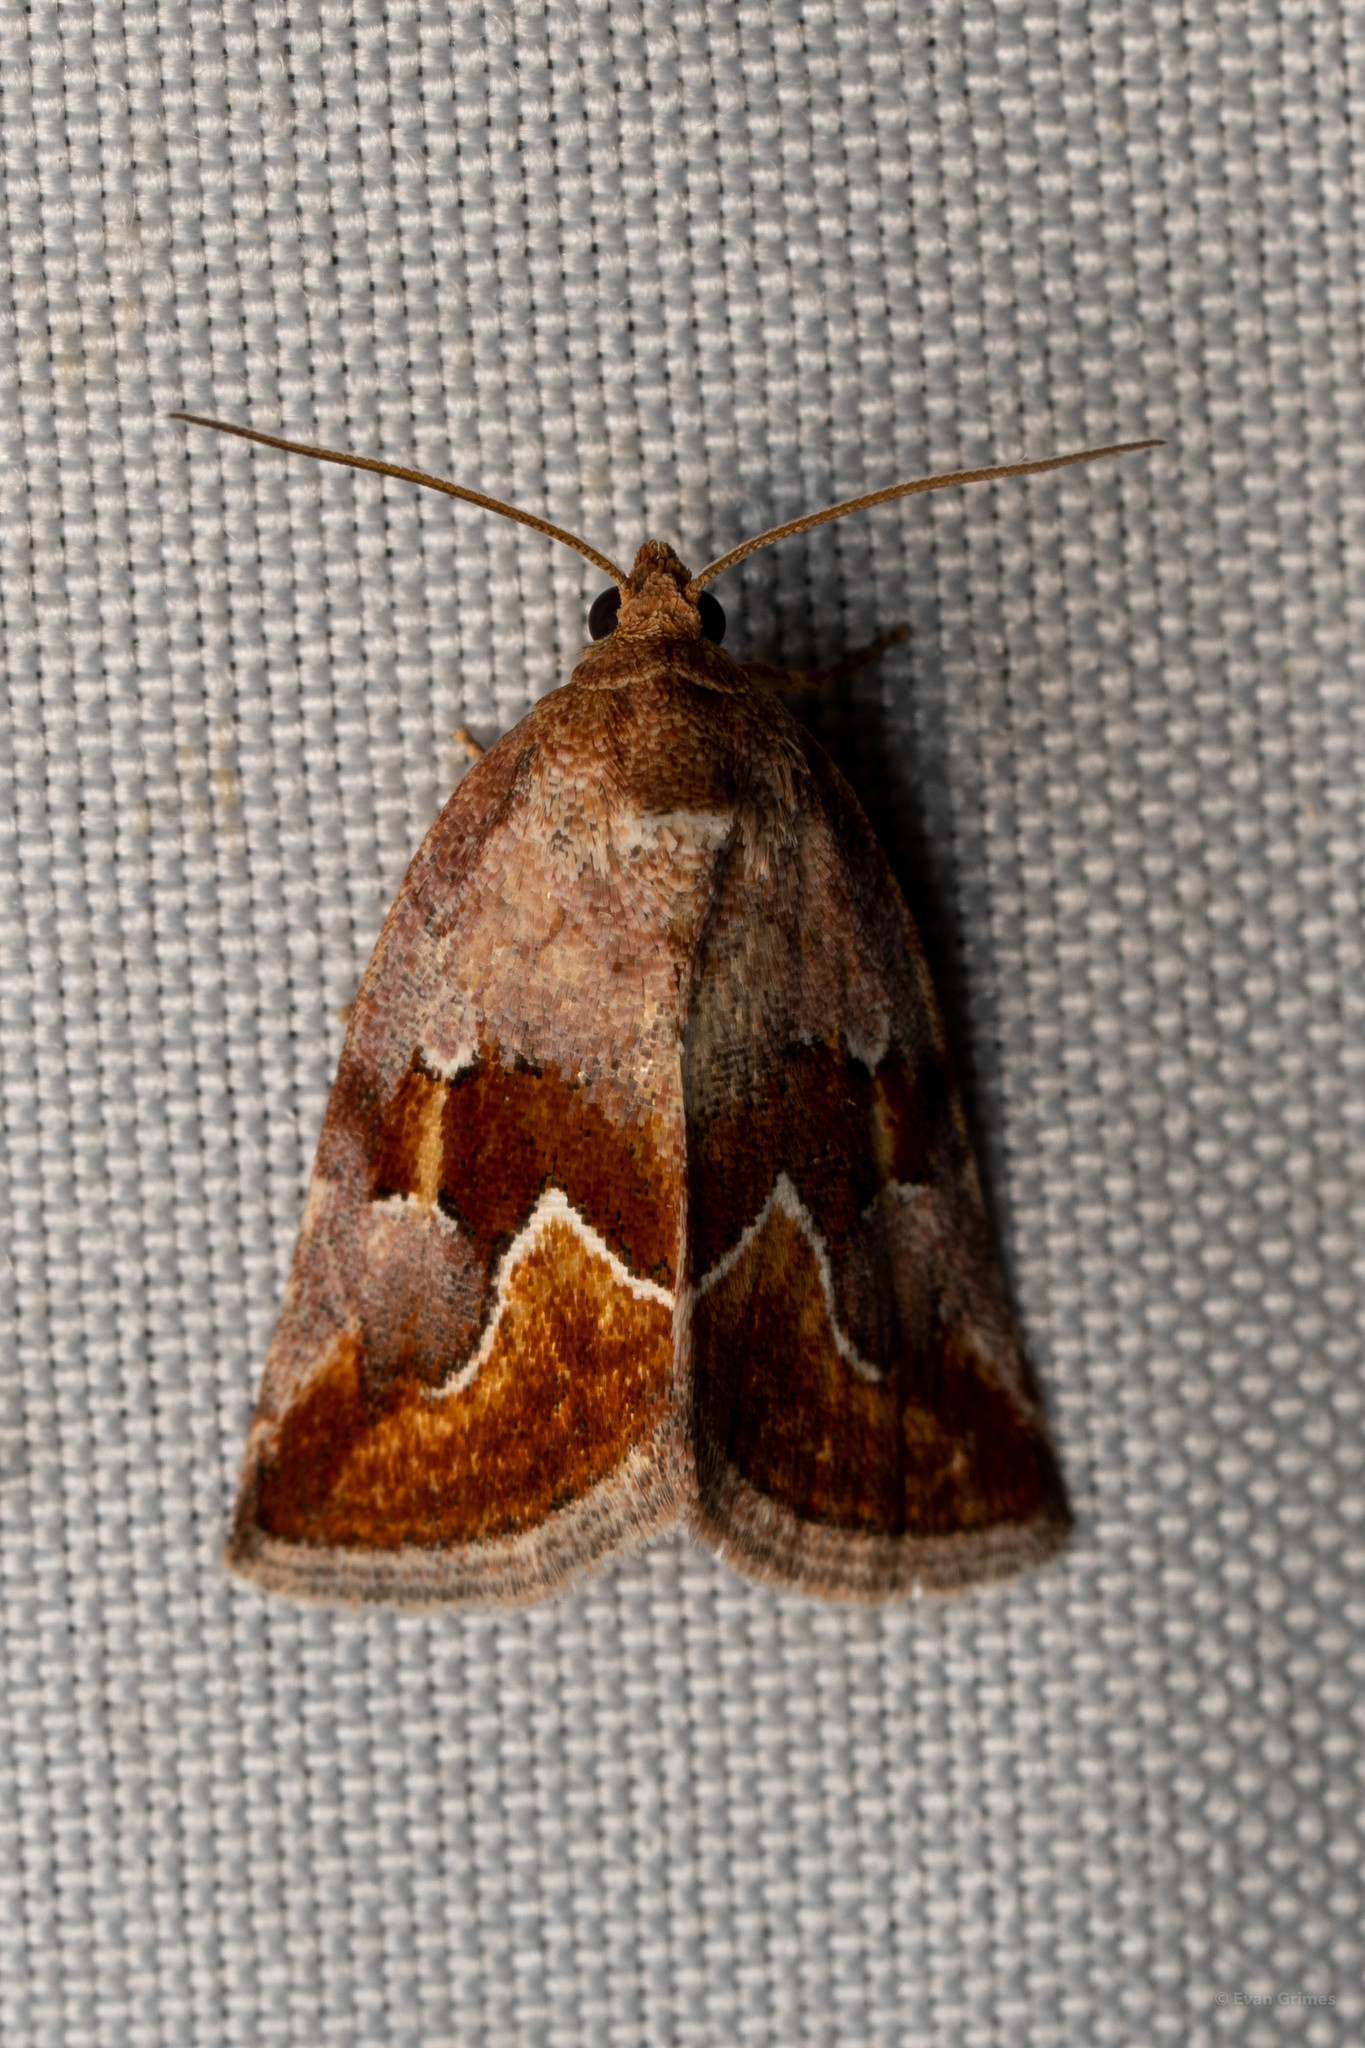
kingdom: Animalia
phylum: Arthropoda
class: Insecta
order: Lepidoptera
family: Noctuidae
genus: Deltote
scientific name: Deltote bellicula
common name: Bog glyph
